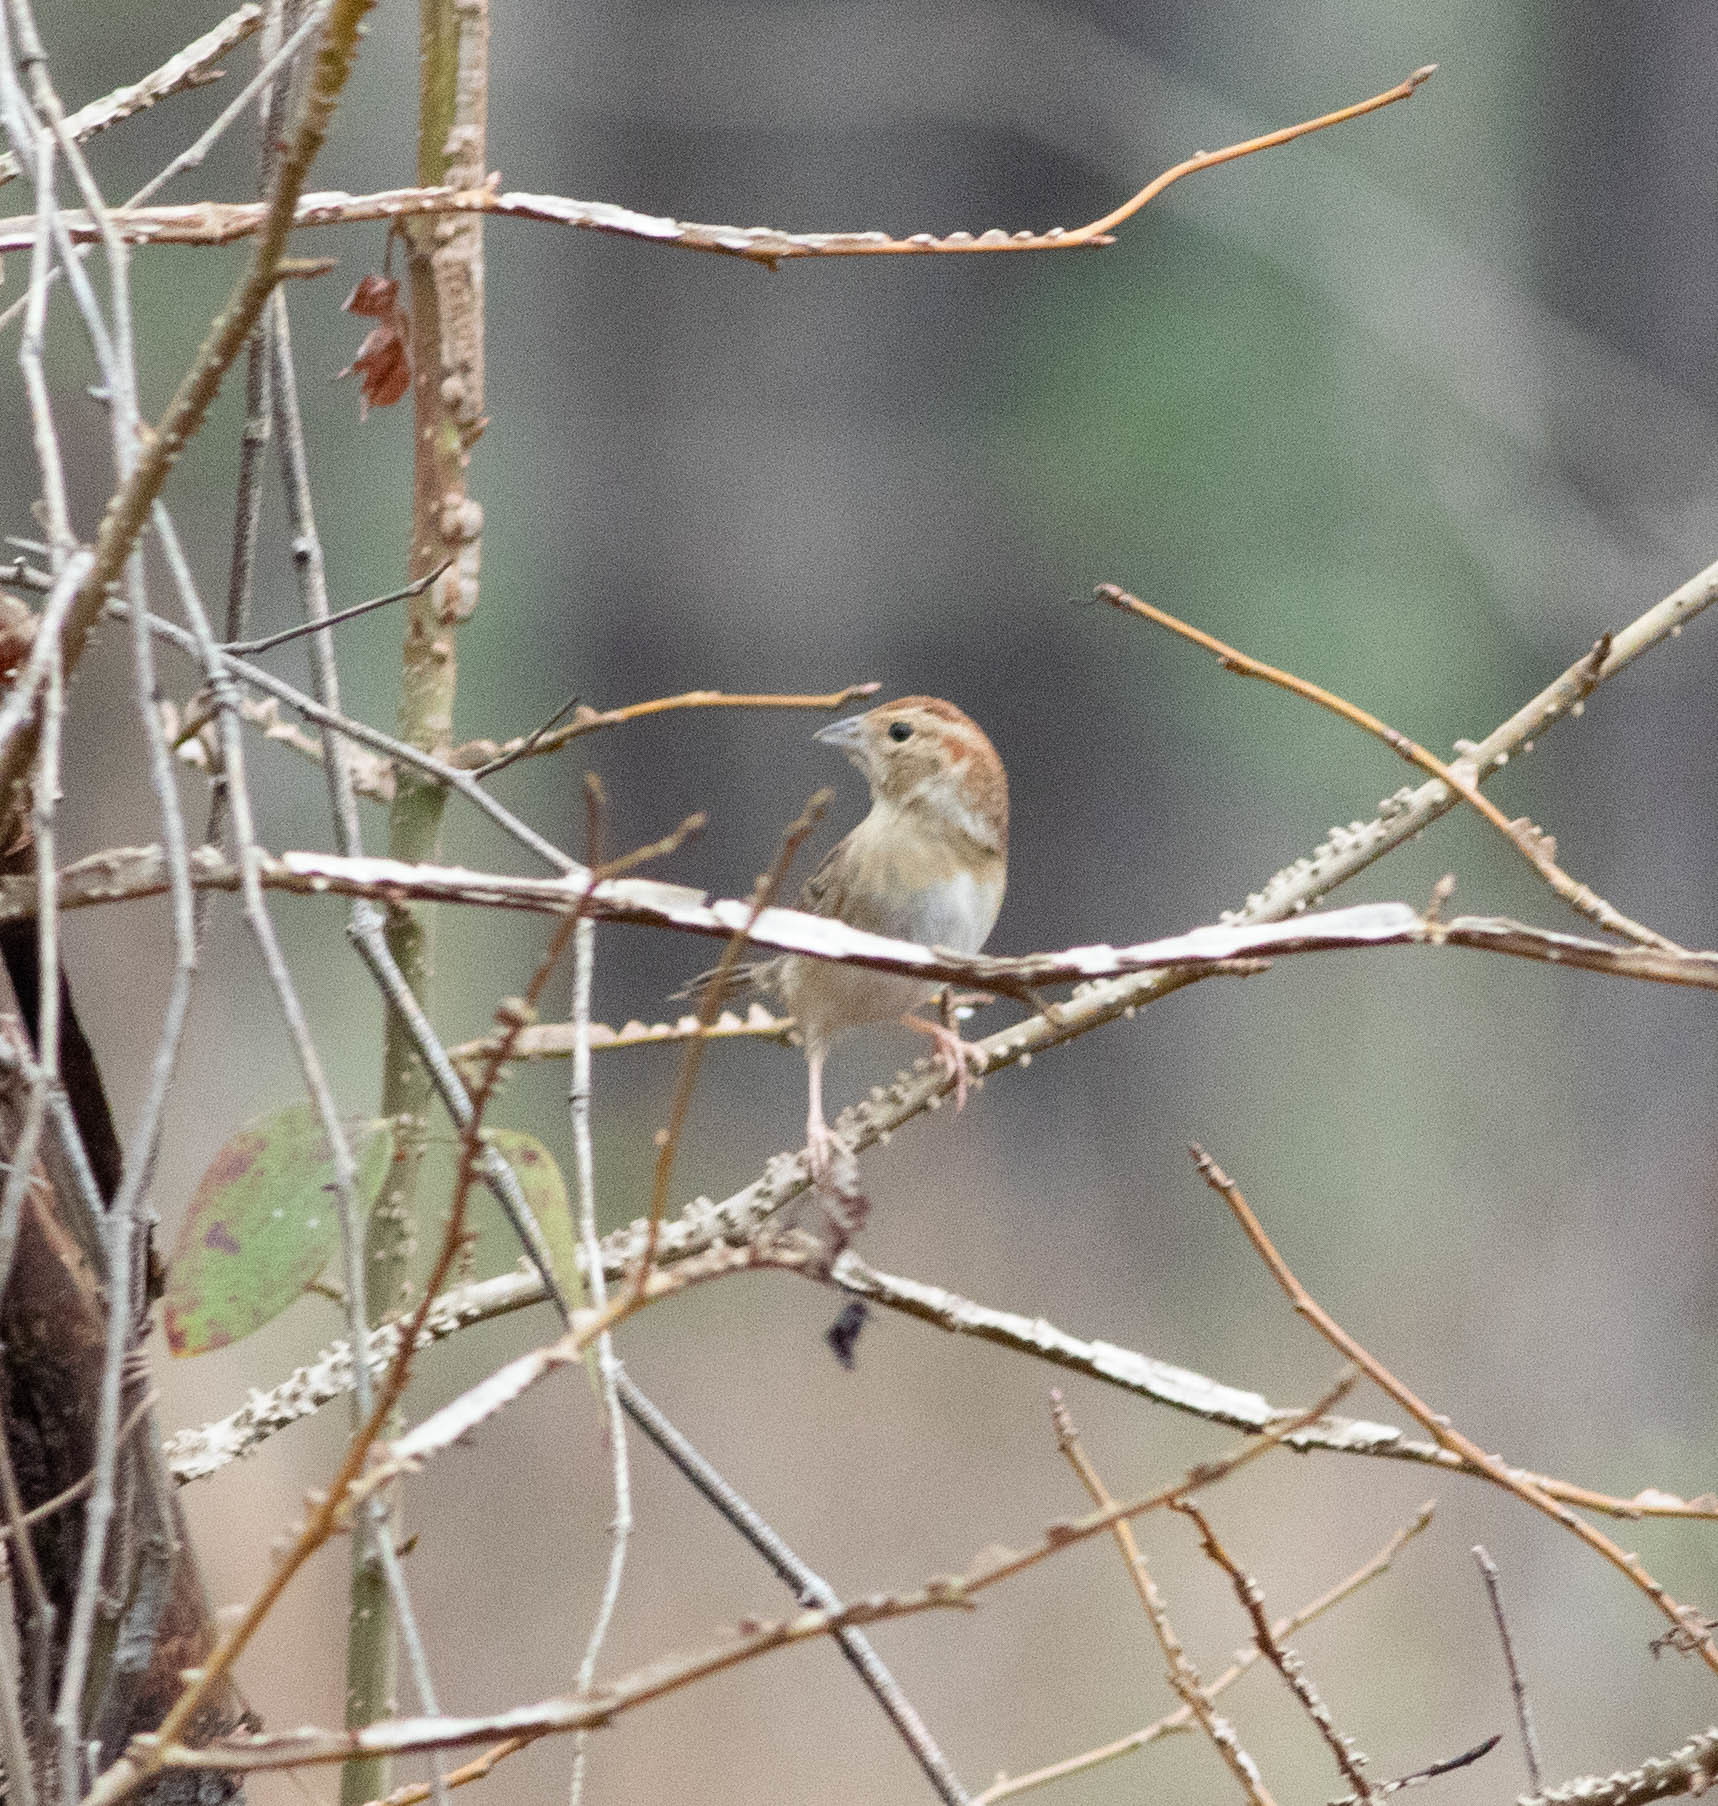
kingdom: Animalia
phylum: Chordata
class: Aves
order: Passeriformes
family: Passerellidae
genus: Peucaea
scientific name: Peucaea aestivalis
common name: Bachman's sparrow
